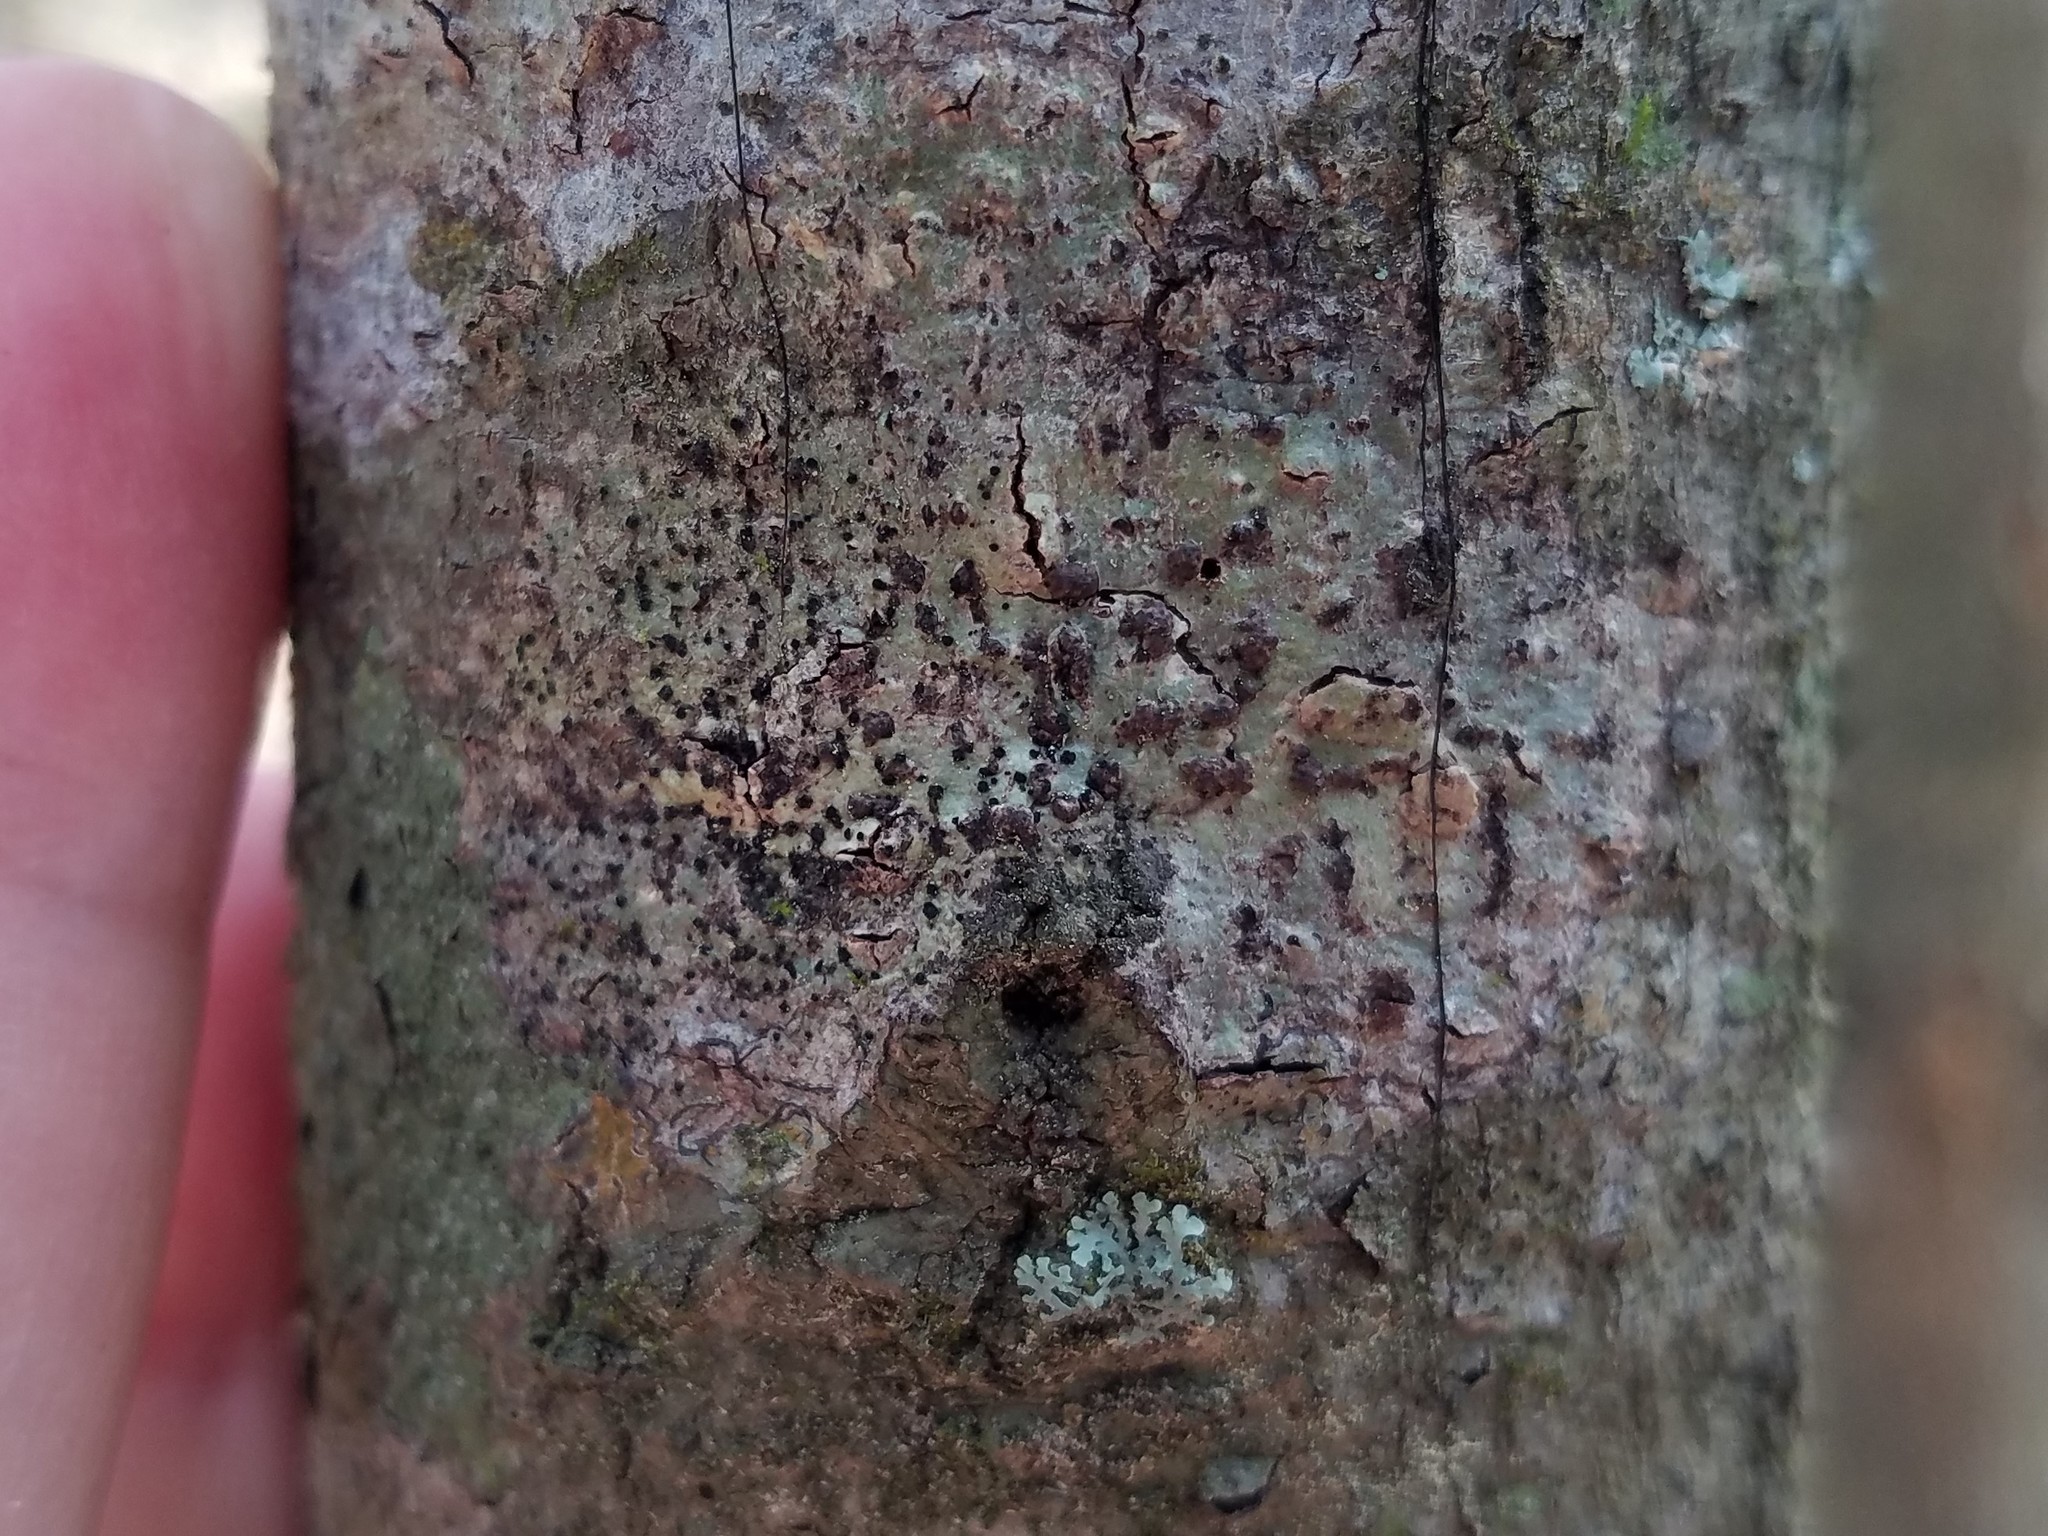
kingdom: Fungi
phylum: Ascomycota
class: Dothideomycetes
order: Trypetheliales
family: Trypetheliaceae
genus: Bathelium
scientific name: Bathelium carolinianum
